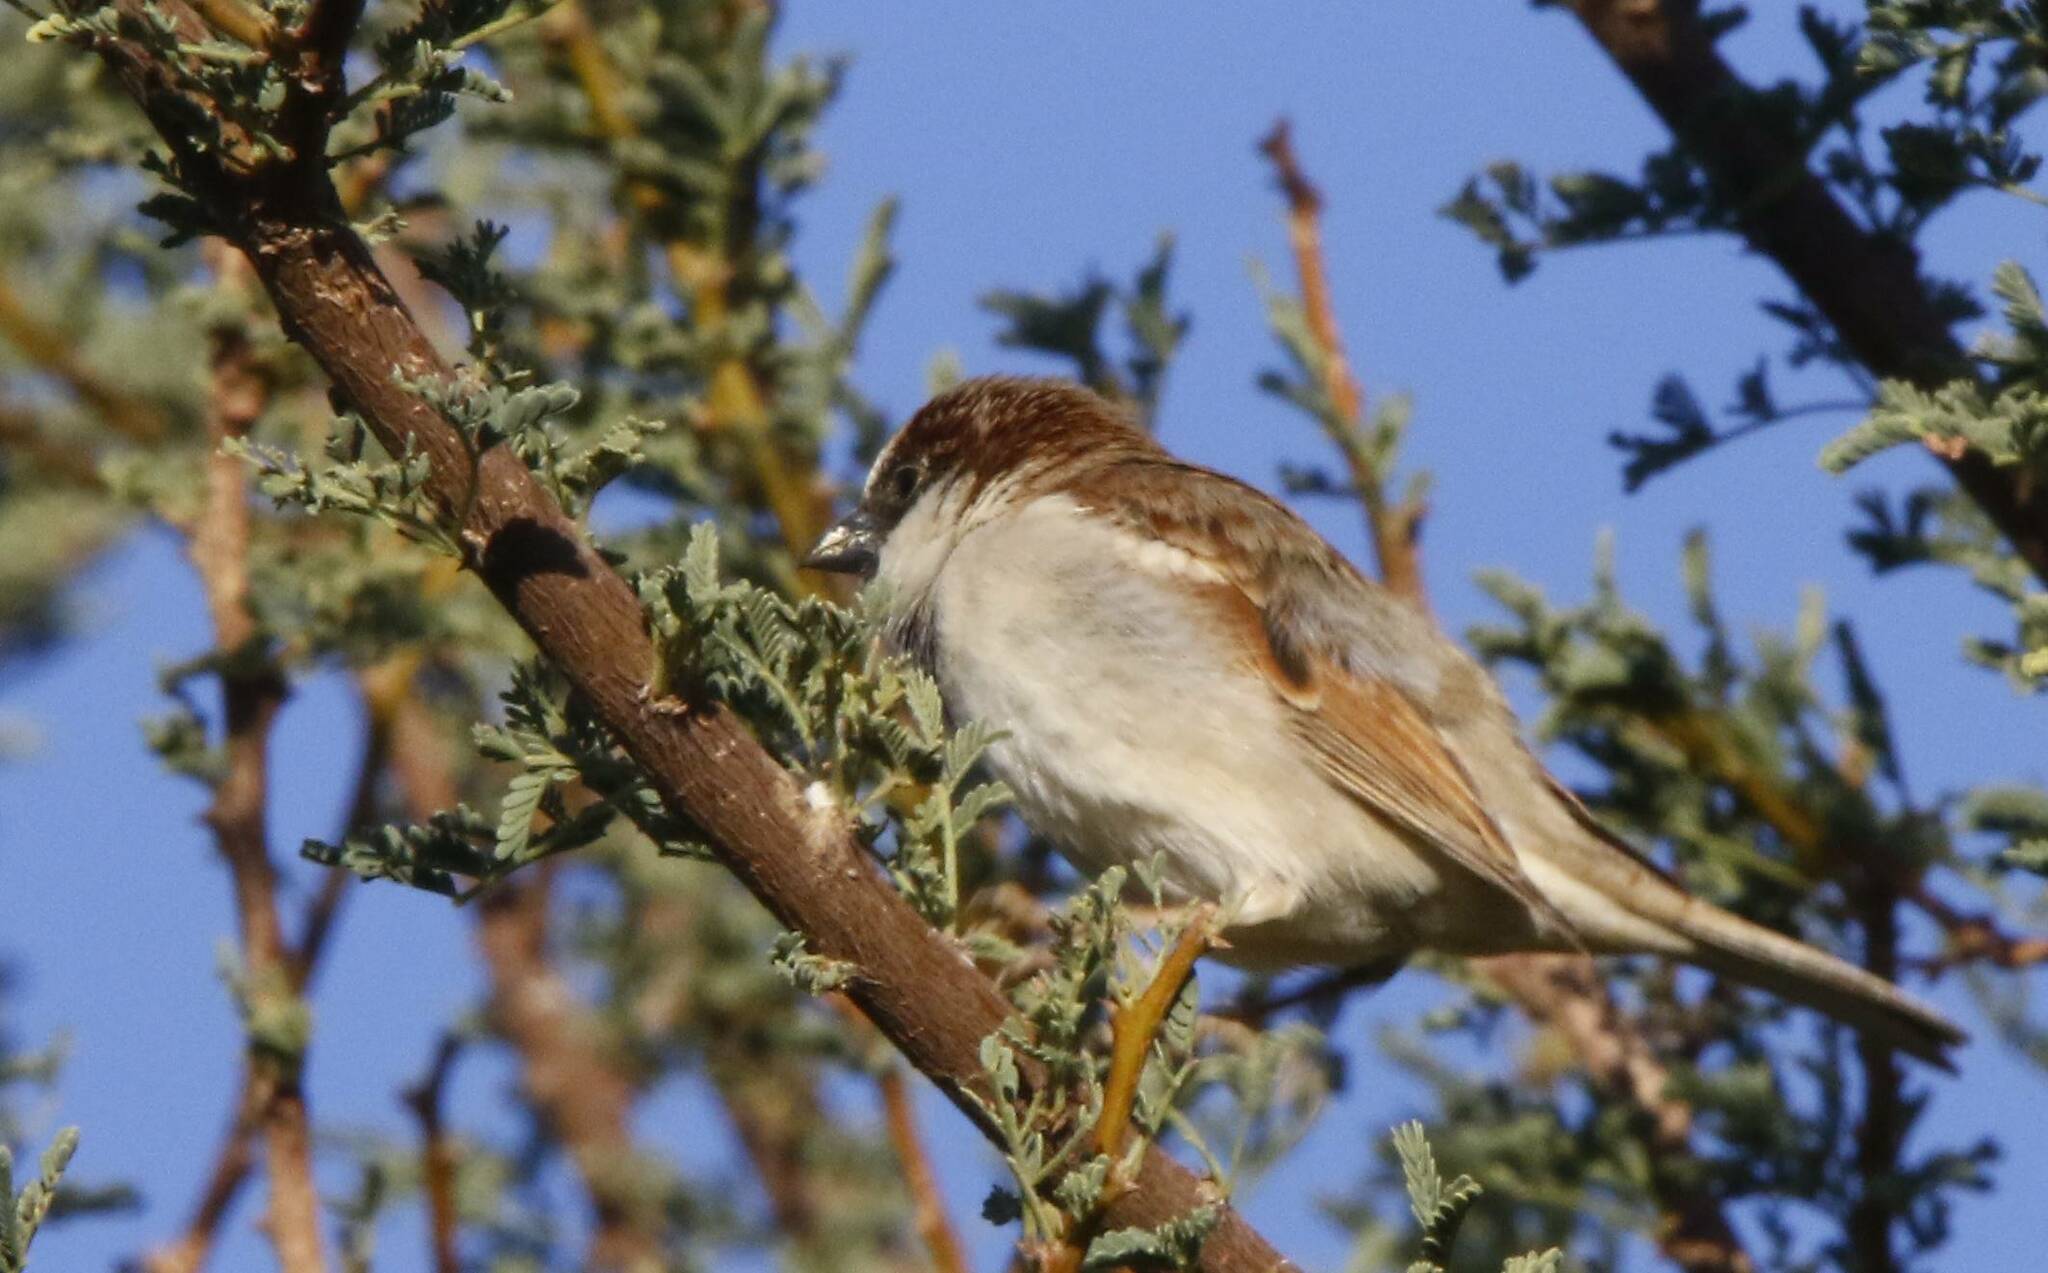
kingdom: Animalia
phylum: Chordata
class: Aves
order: Passeriformes
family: Passeridae
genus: Passer
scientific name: Passer domesticus
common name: House sparrow
